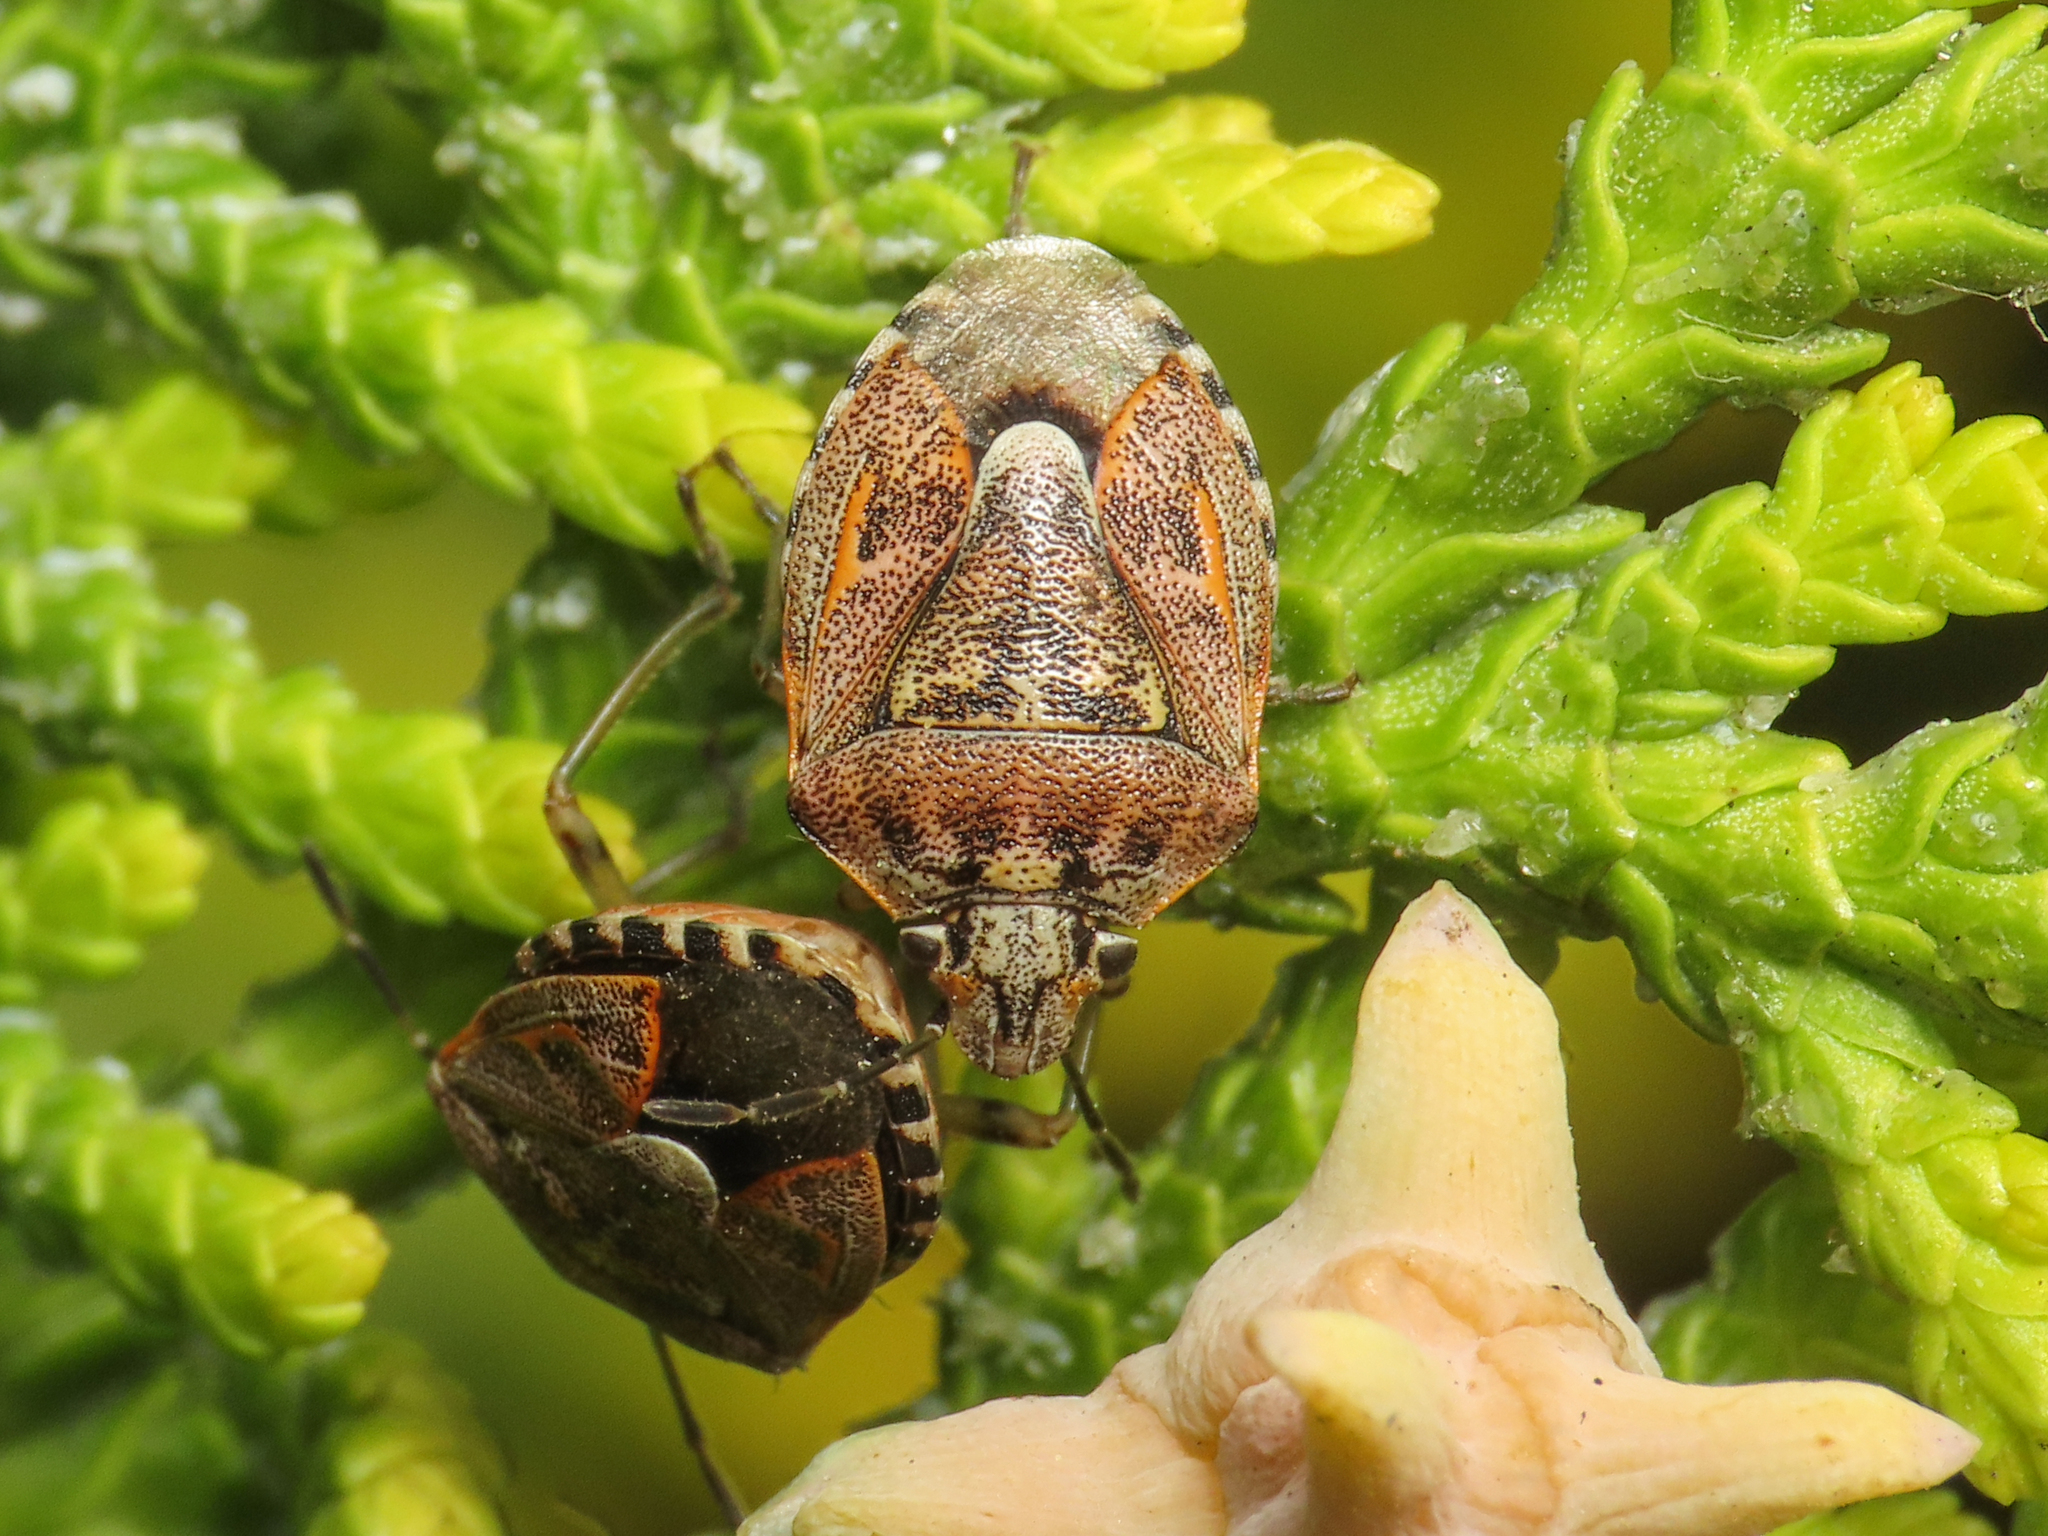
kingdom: Animalia
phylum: Arthropoda
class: Insecta
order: Hemiptera
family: Pentatomidae
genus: Holcogaster
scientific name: Holcogaster fibulata
